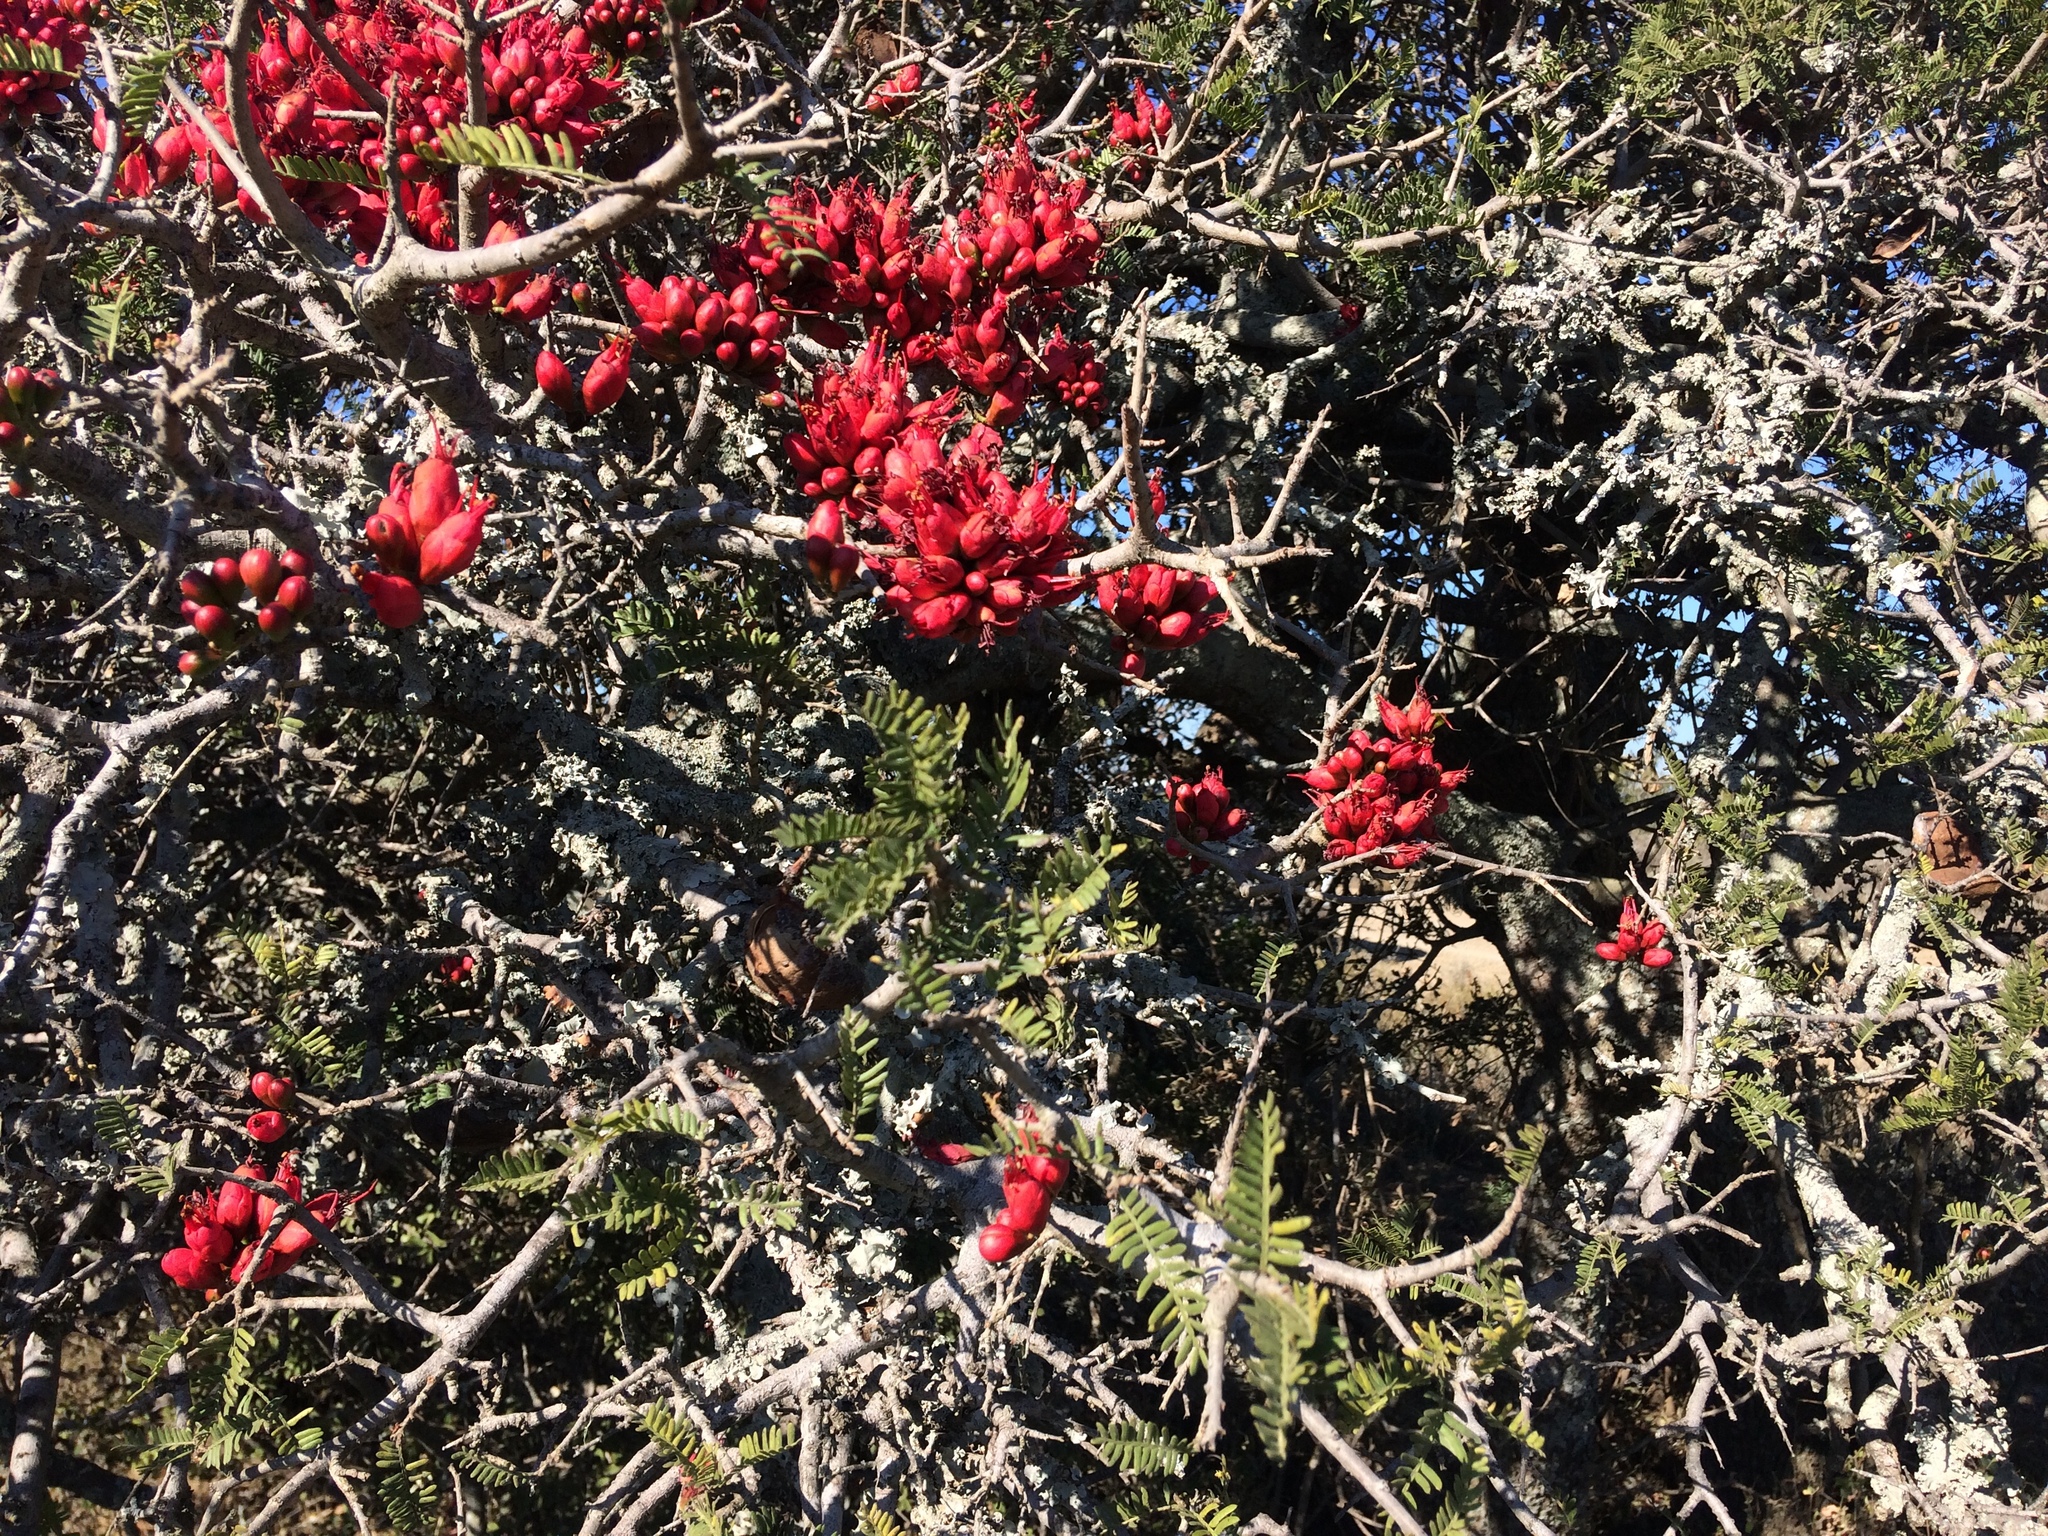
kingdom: Plantae
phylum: Tracheophyta
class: Magnoliopsida
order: Fabales
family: Fabaceae
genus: Schotia
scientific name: Schotia afra
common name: Hottentot's bean
